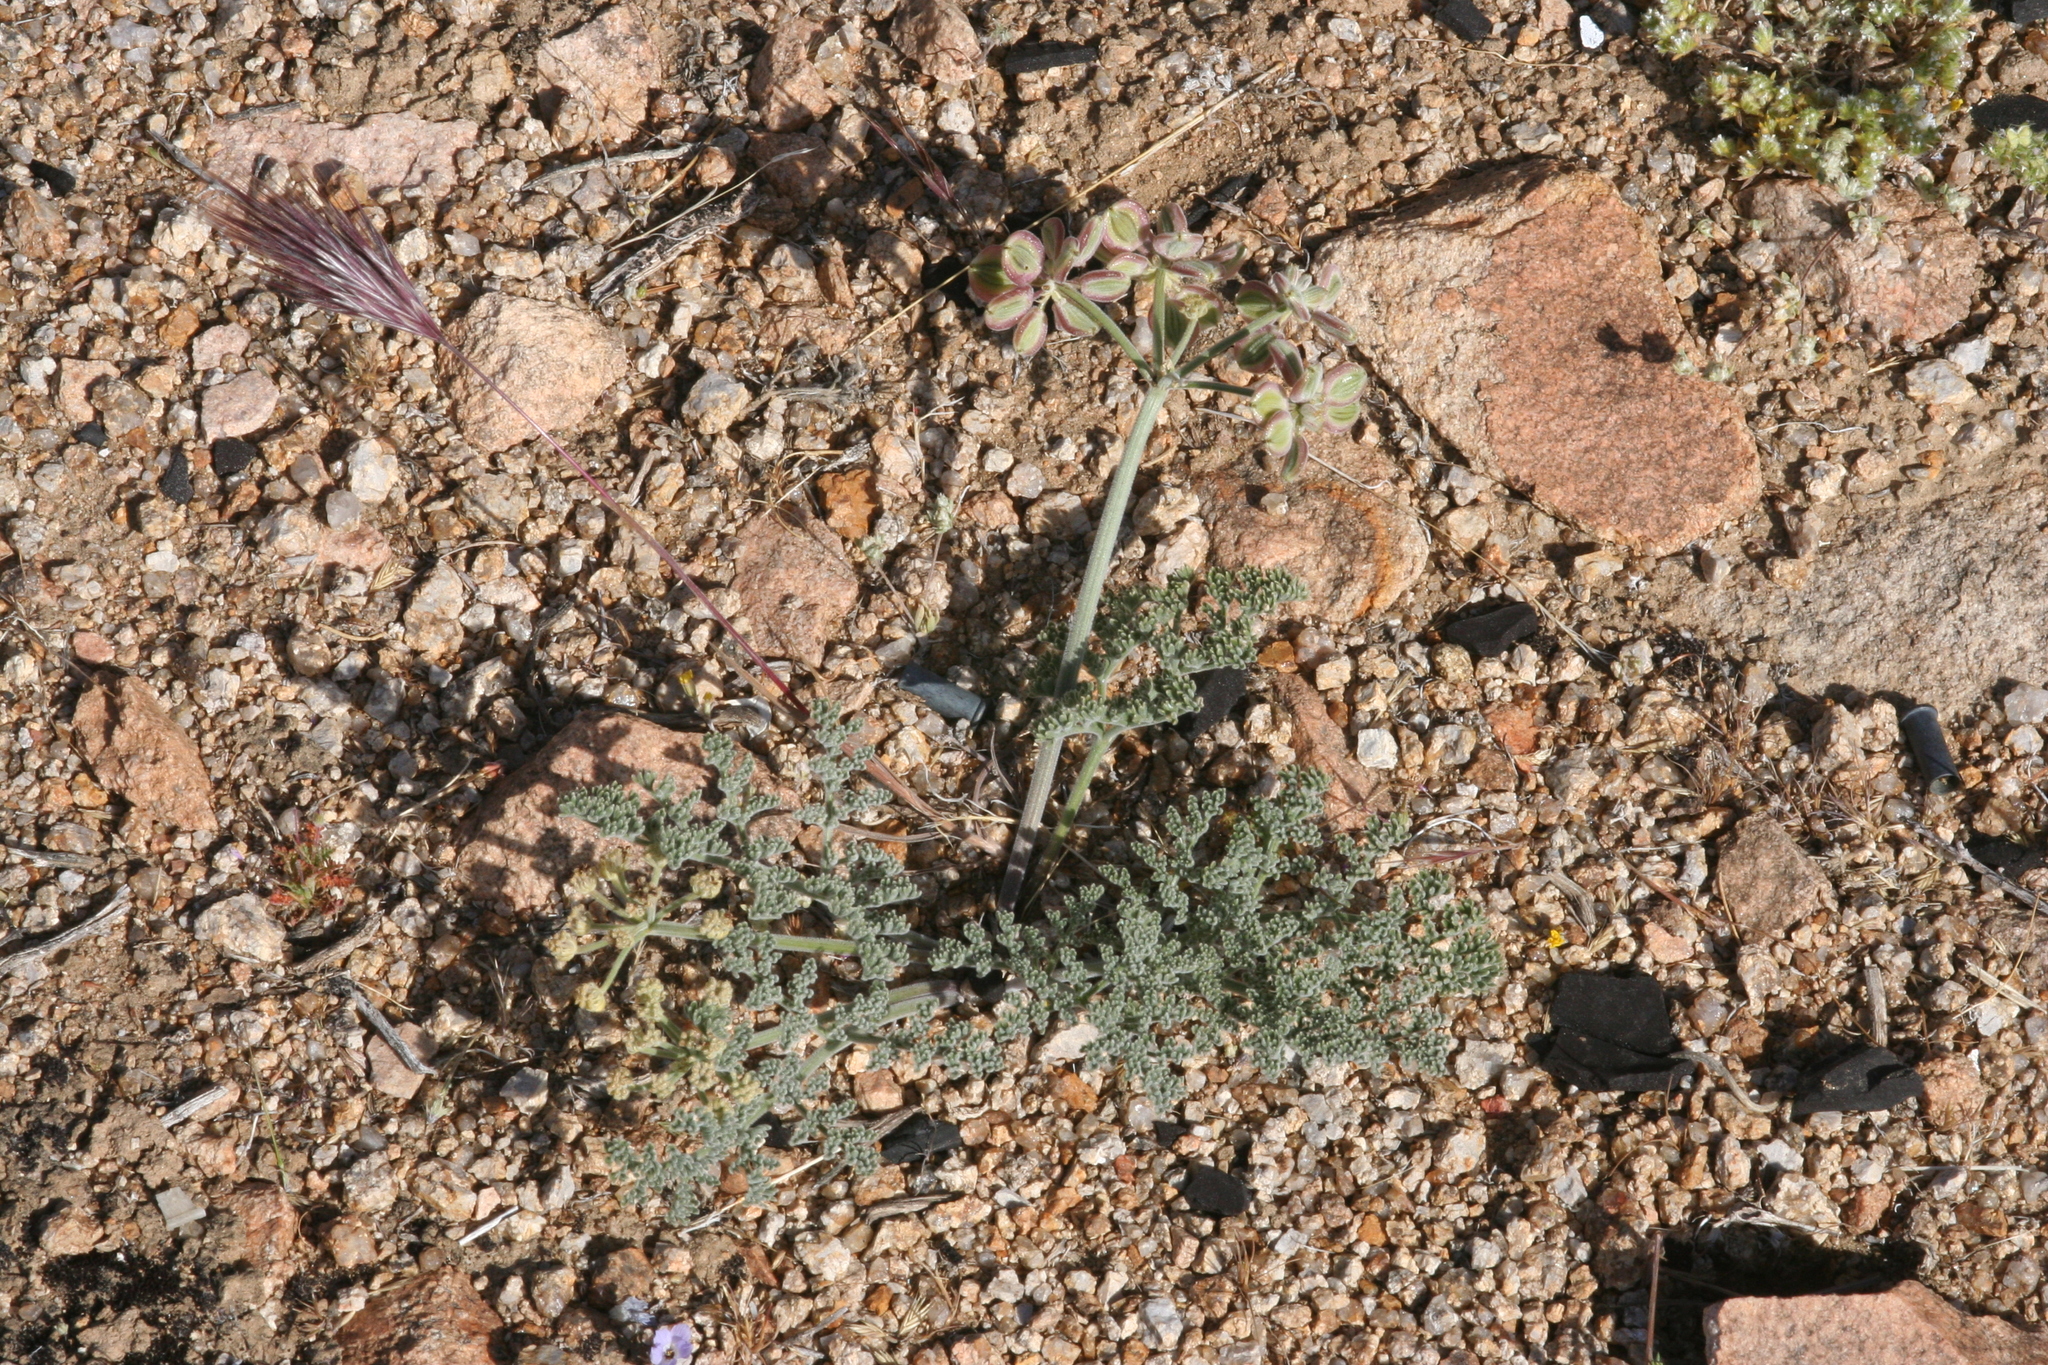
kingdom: Plantae
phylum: Tracheophyta
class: Magnoliopsida
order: Apiales
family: Apiaceae
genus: Lomatium
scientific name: Lomatium mohavense
